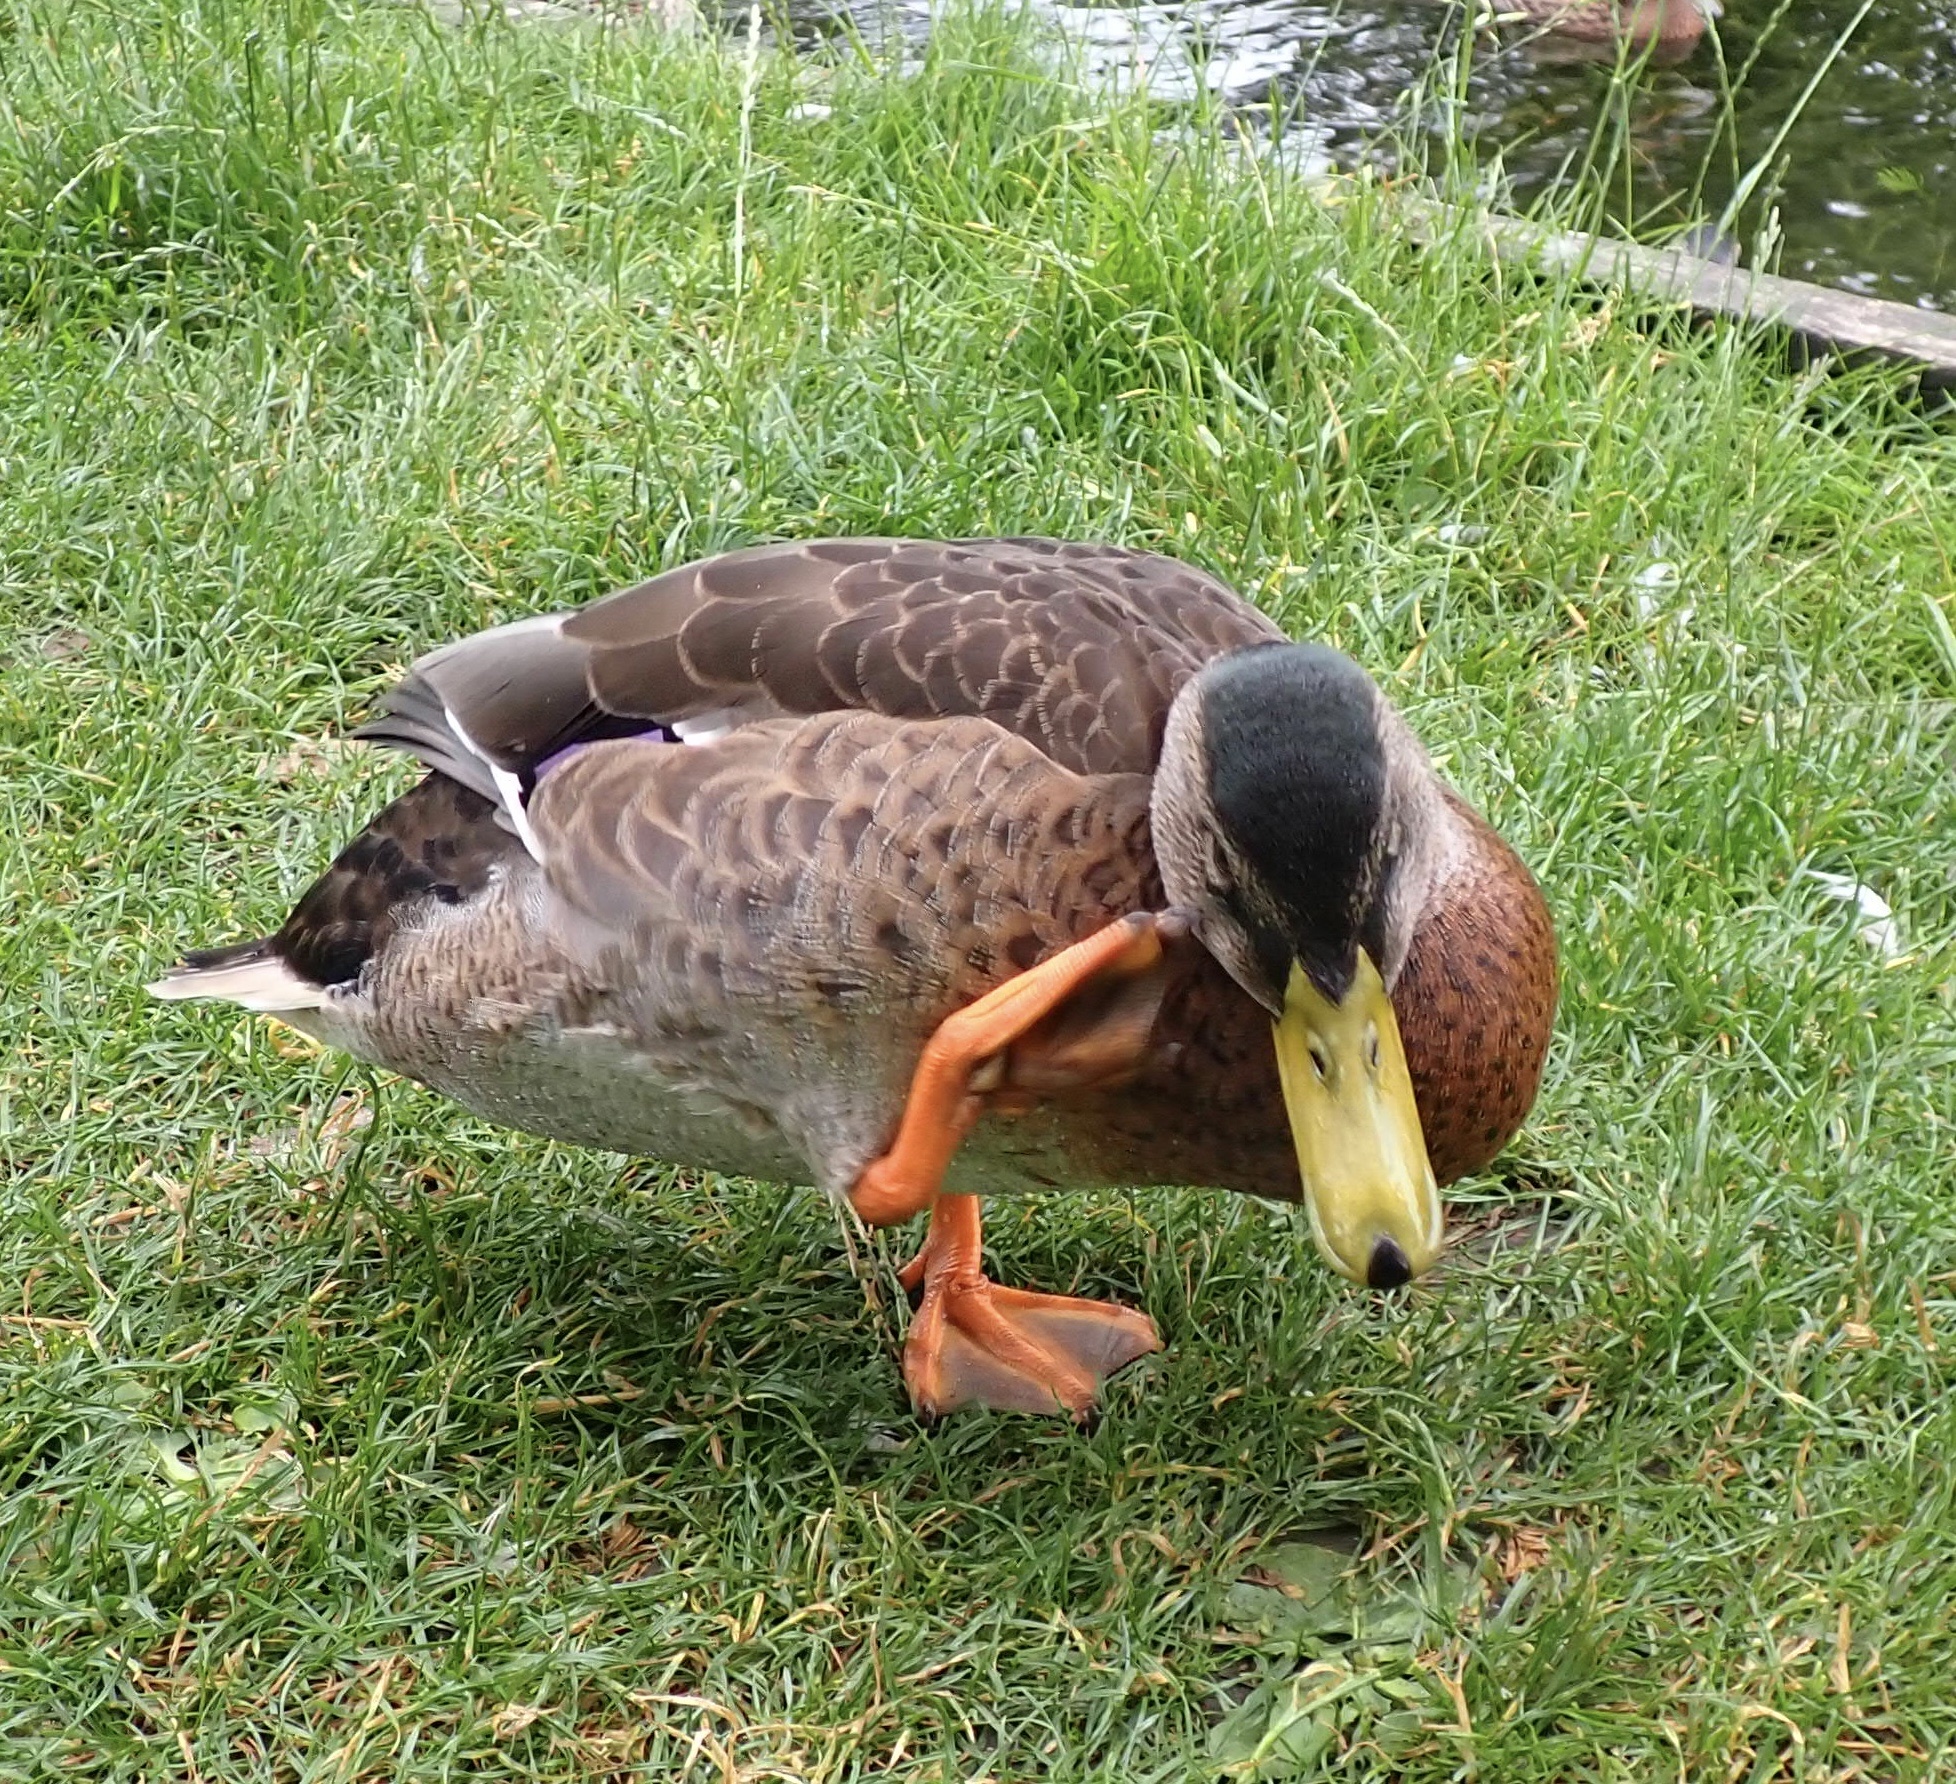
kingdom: Animalia
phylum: Chordata
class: Aves
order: Anseriformes
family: Anatidae
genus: Anas
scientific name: Anas platyrhynchos
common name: Mallard
